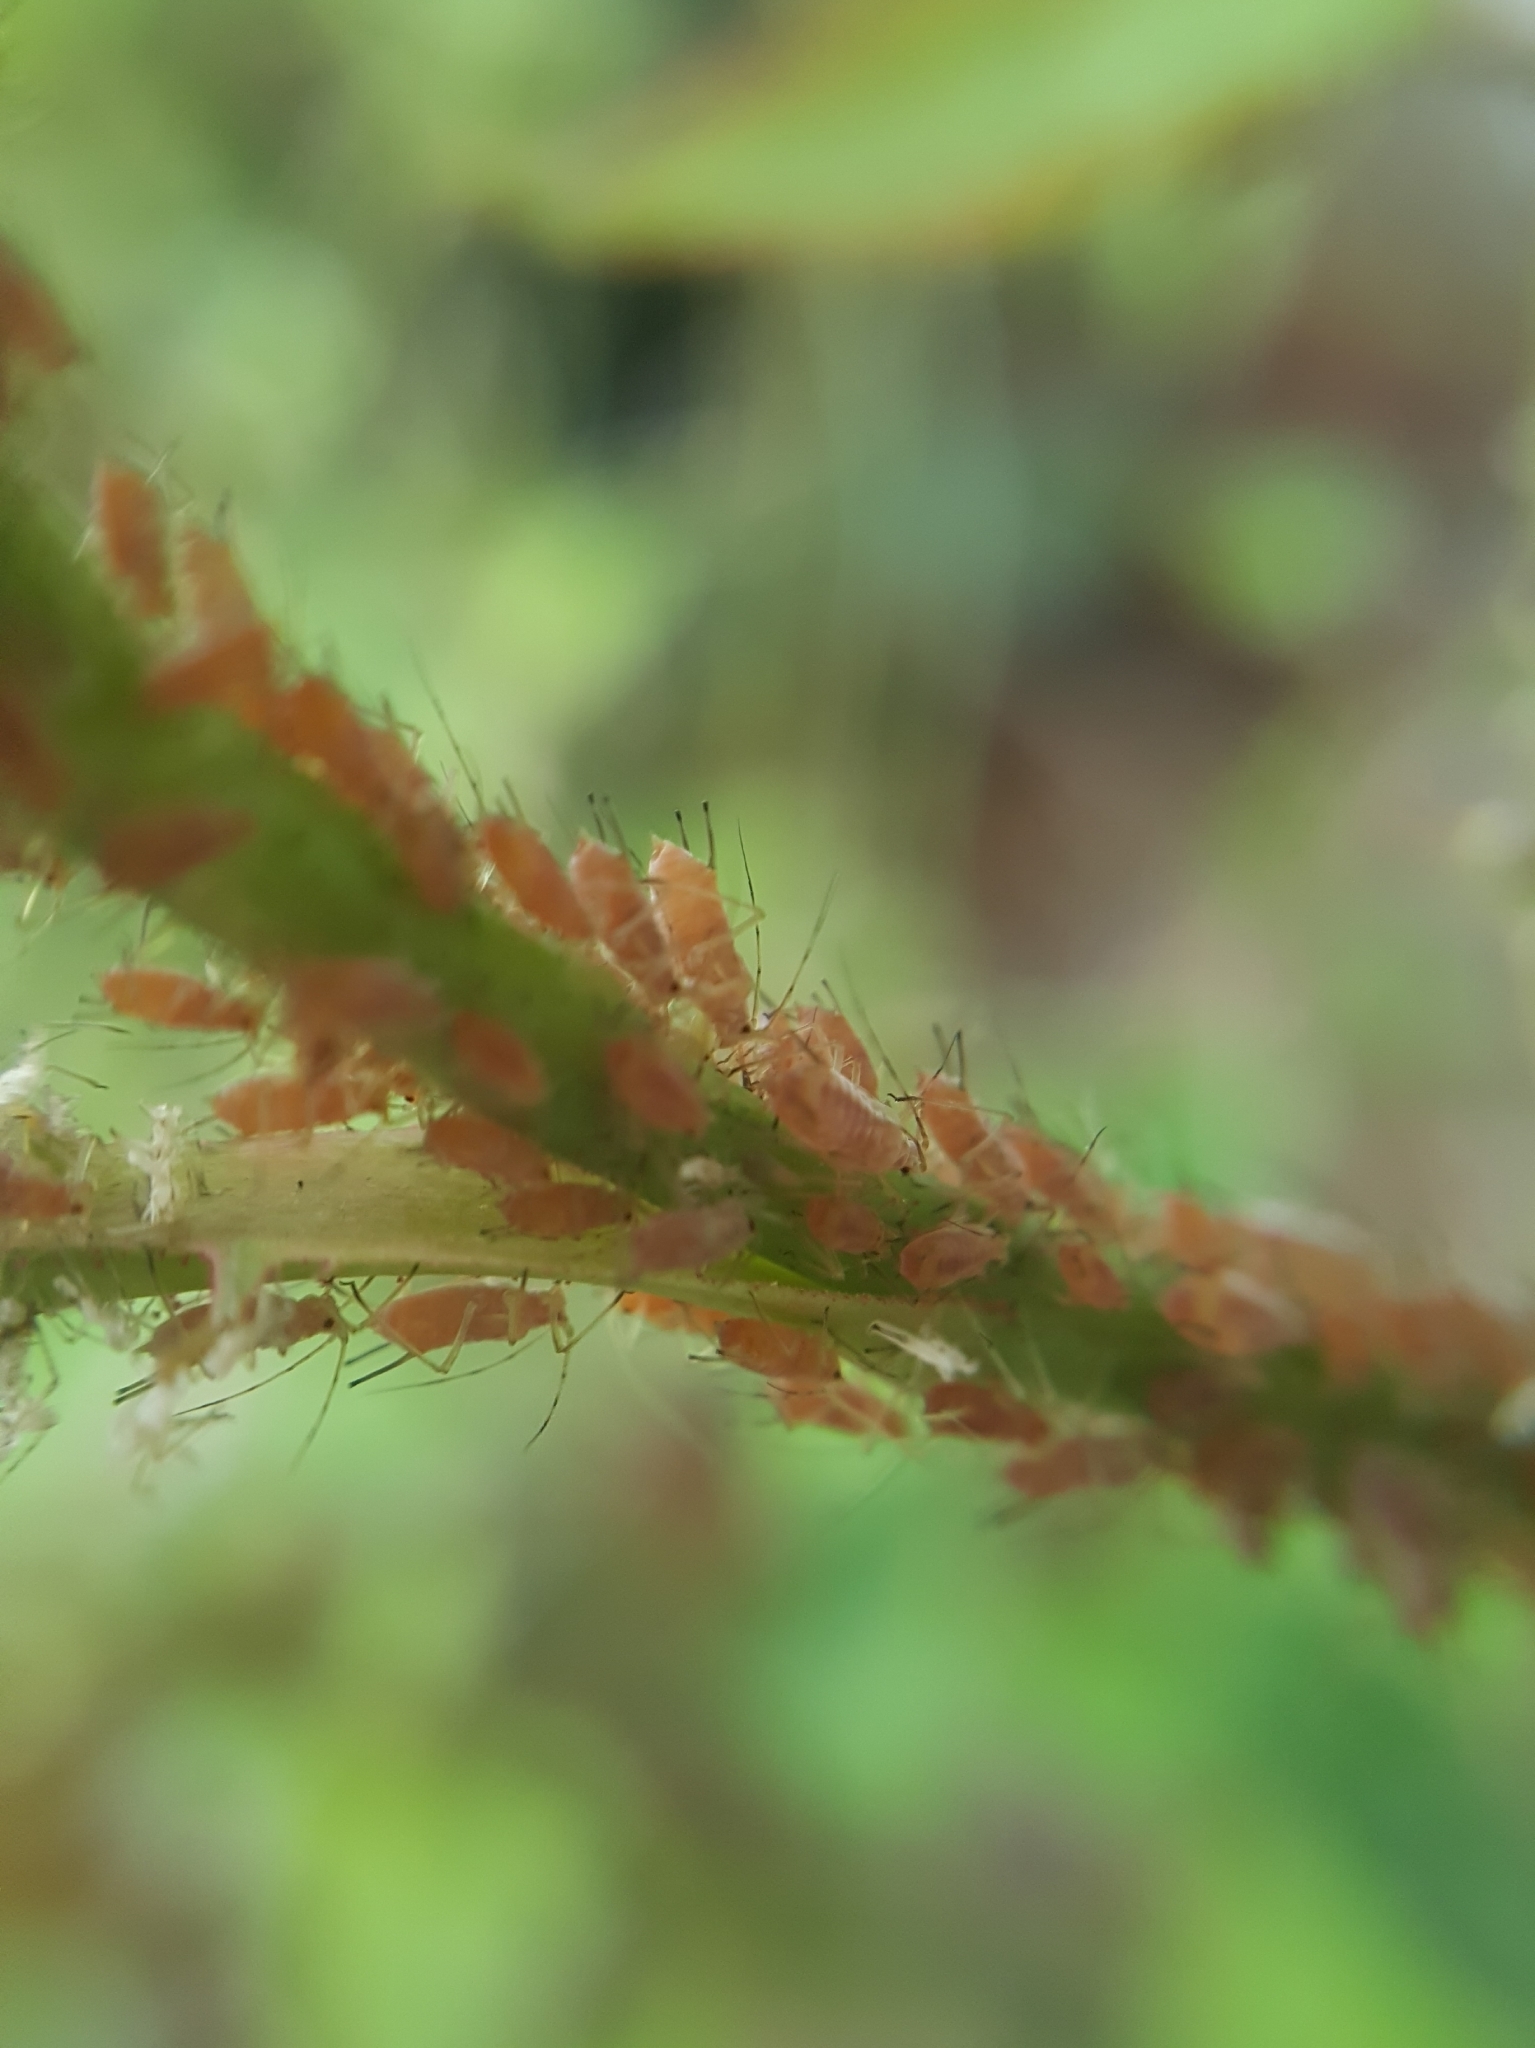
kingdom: Animalia
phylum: Arthropoda
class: Insecta
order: Hemiptera
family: Aphididae
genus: Macrosiphum
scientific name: Macrosiphum rosae
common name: Rose aphid
